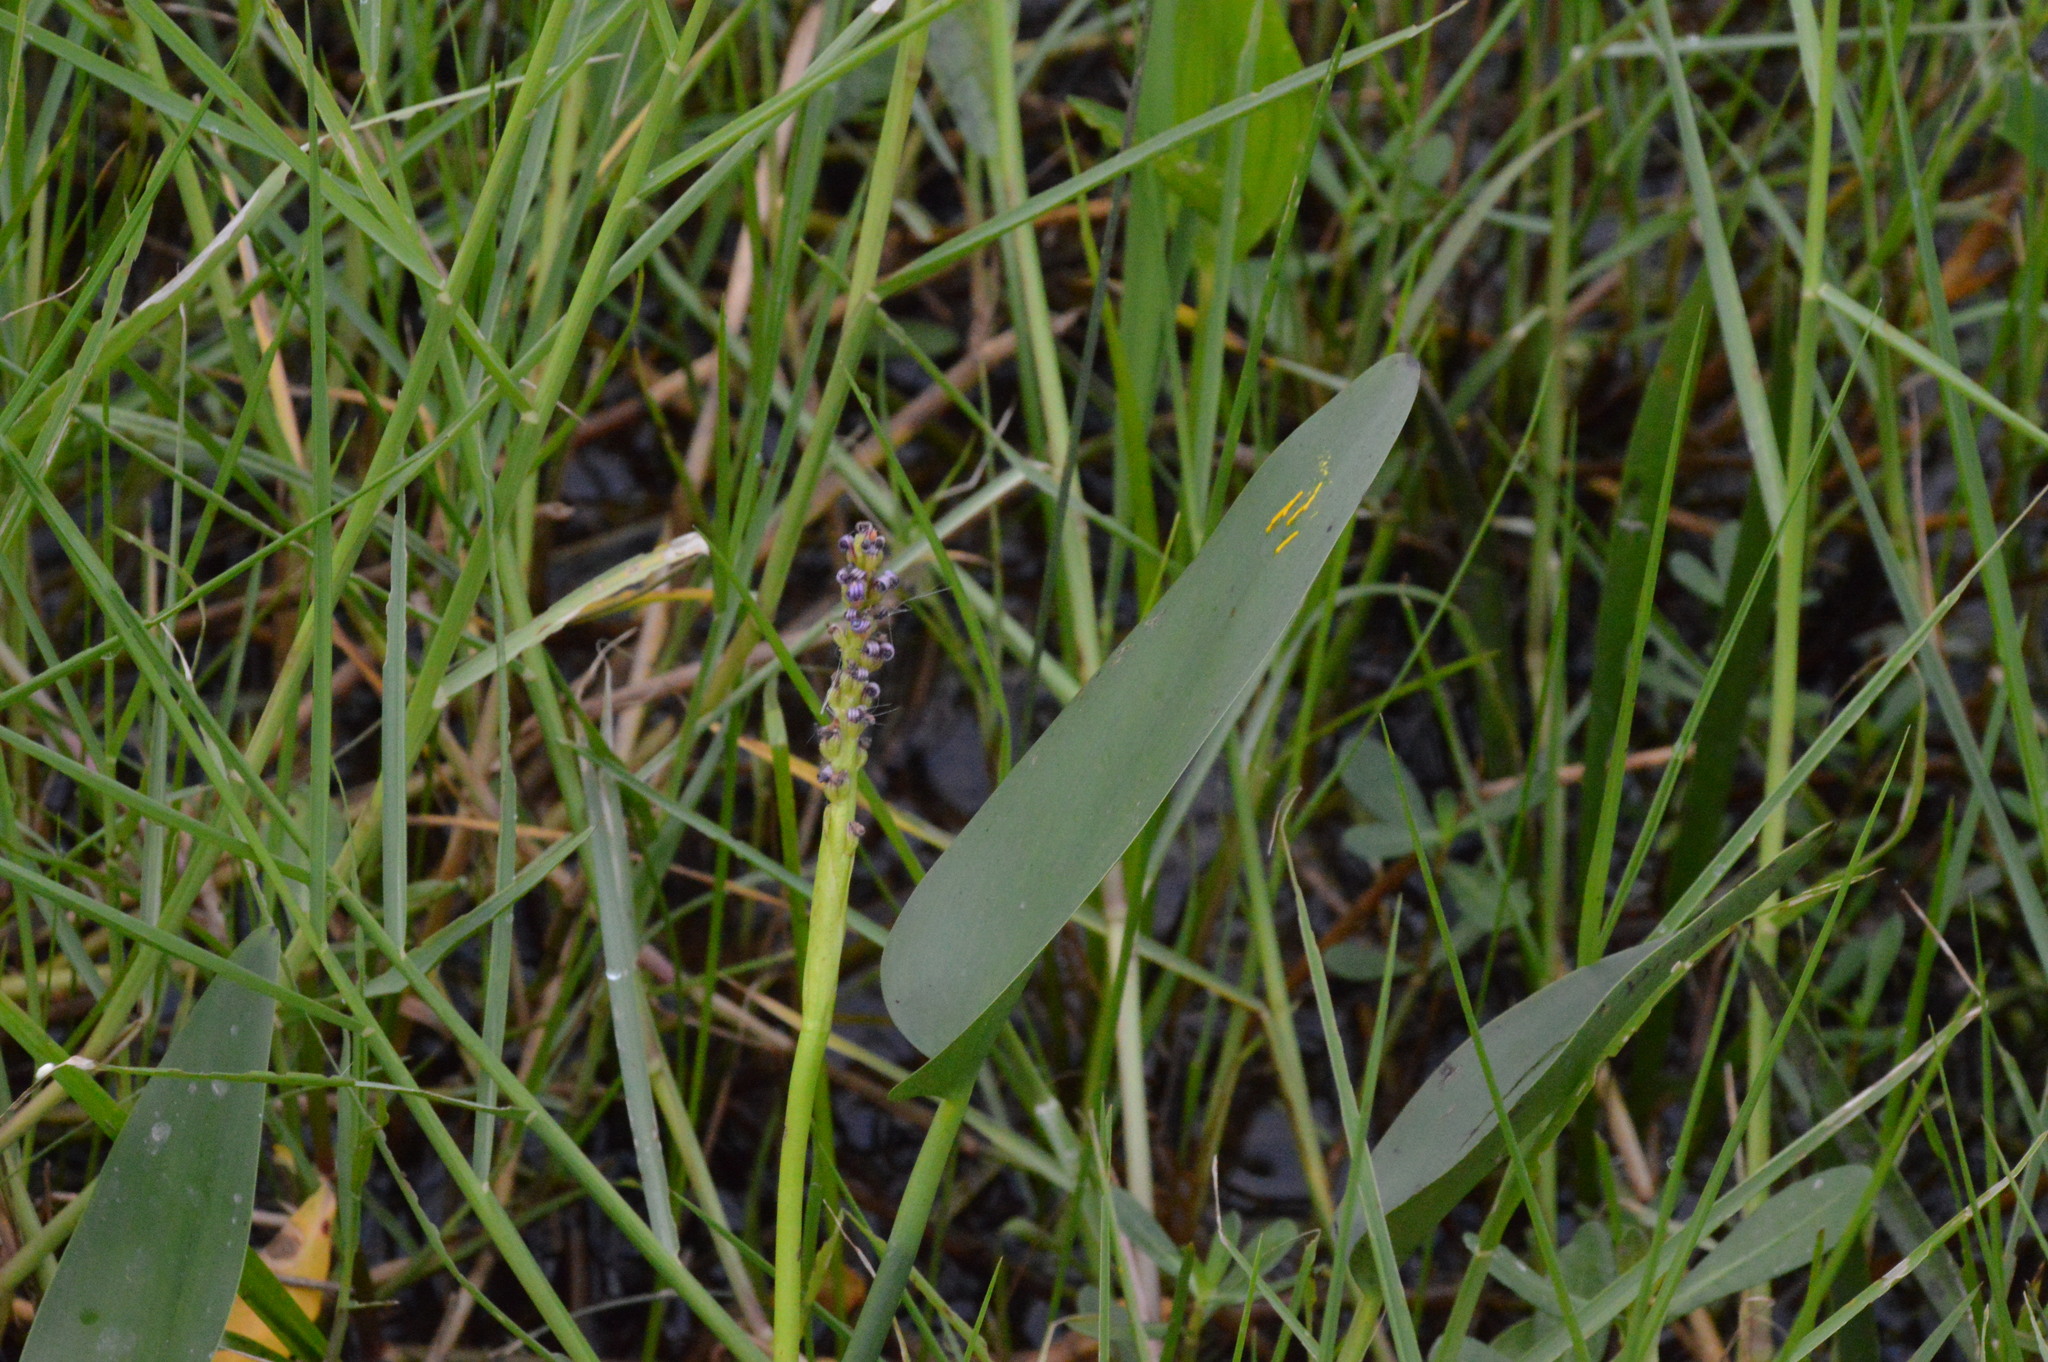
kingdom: Plantae
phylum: Tracheophyta
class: Liliopsida
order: Commelinales
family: Pontederiaceae
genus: Pontederia
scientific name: Pontederia cordata
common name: Pickerelweed
